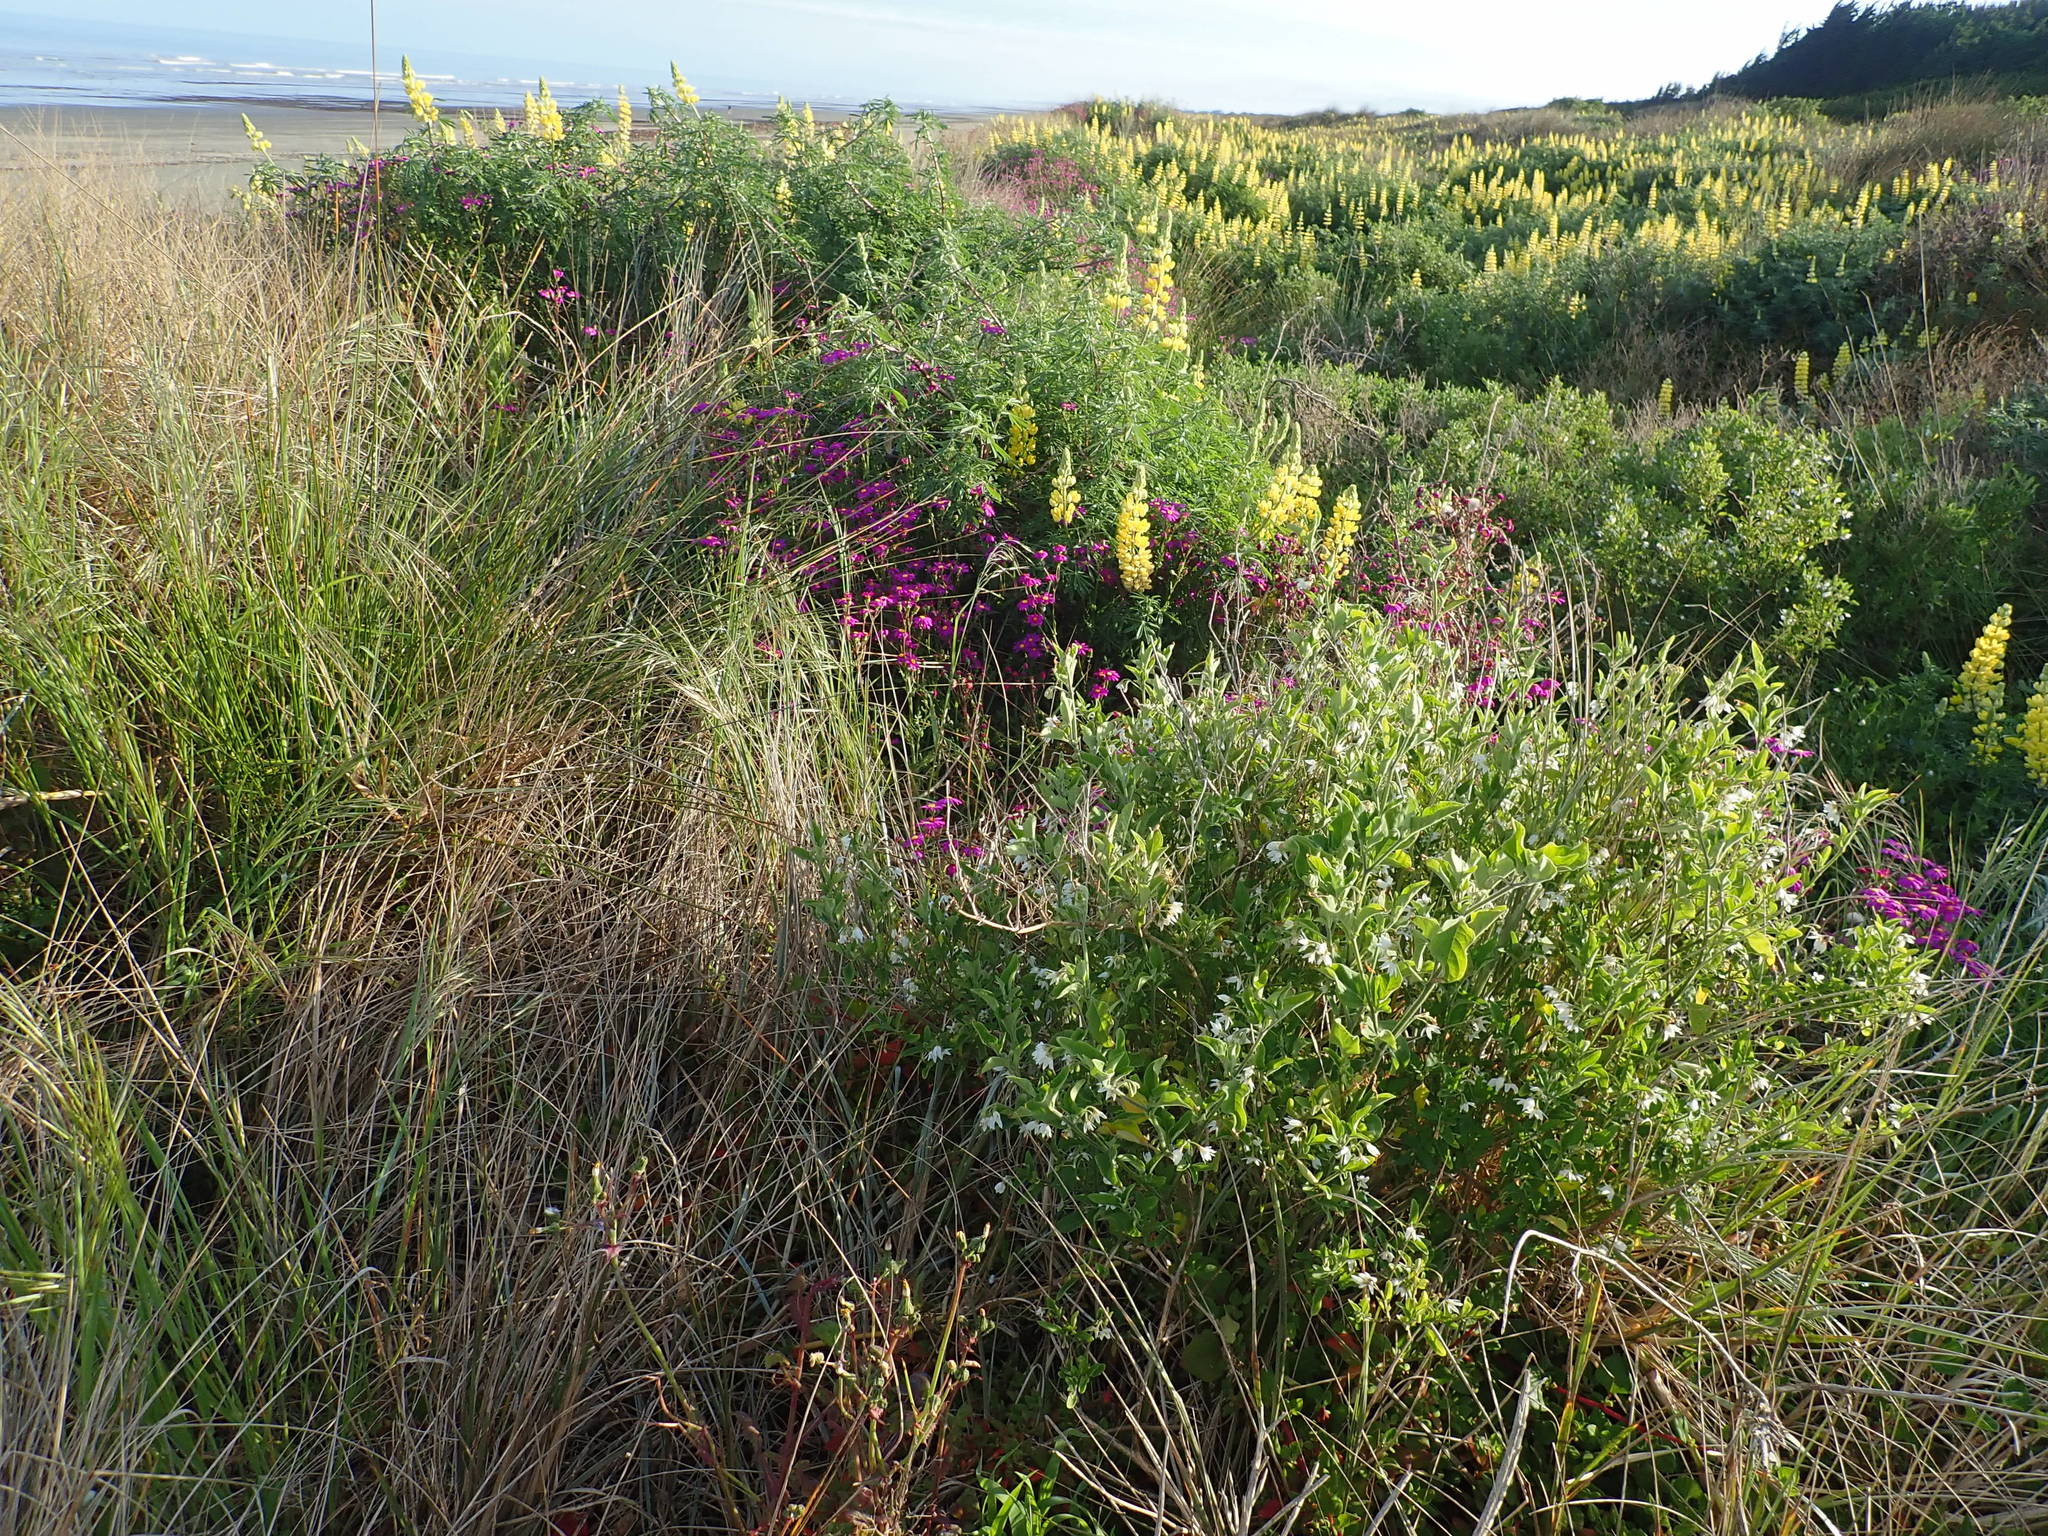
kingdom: Plantae
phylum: Tracheophyta
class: Magnoliopsida
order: Solanales
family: Solanaceae
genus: Solanum
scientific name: Solanum chenopodioides
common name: Tall nightshade
